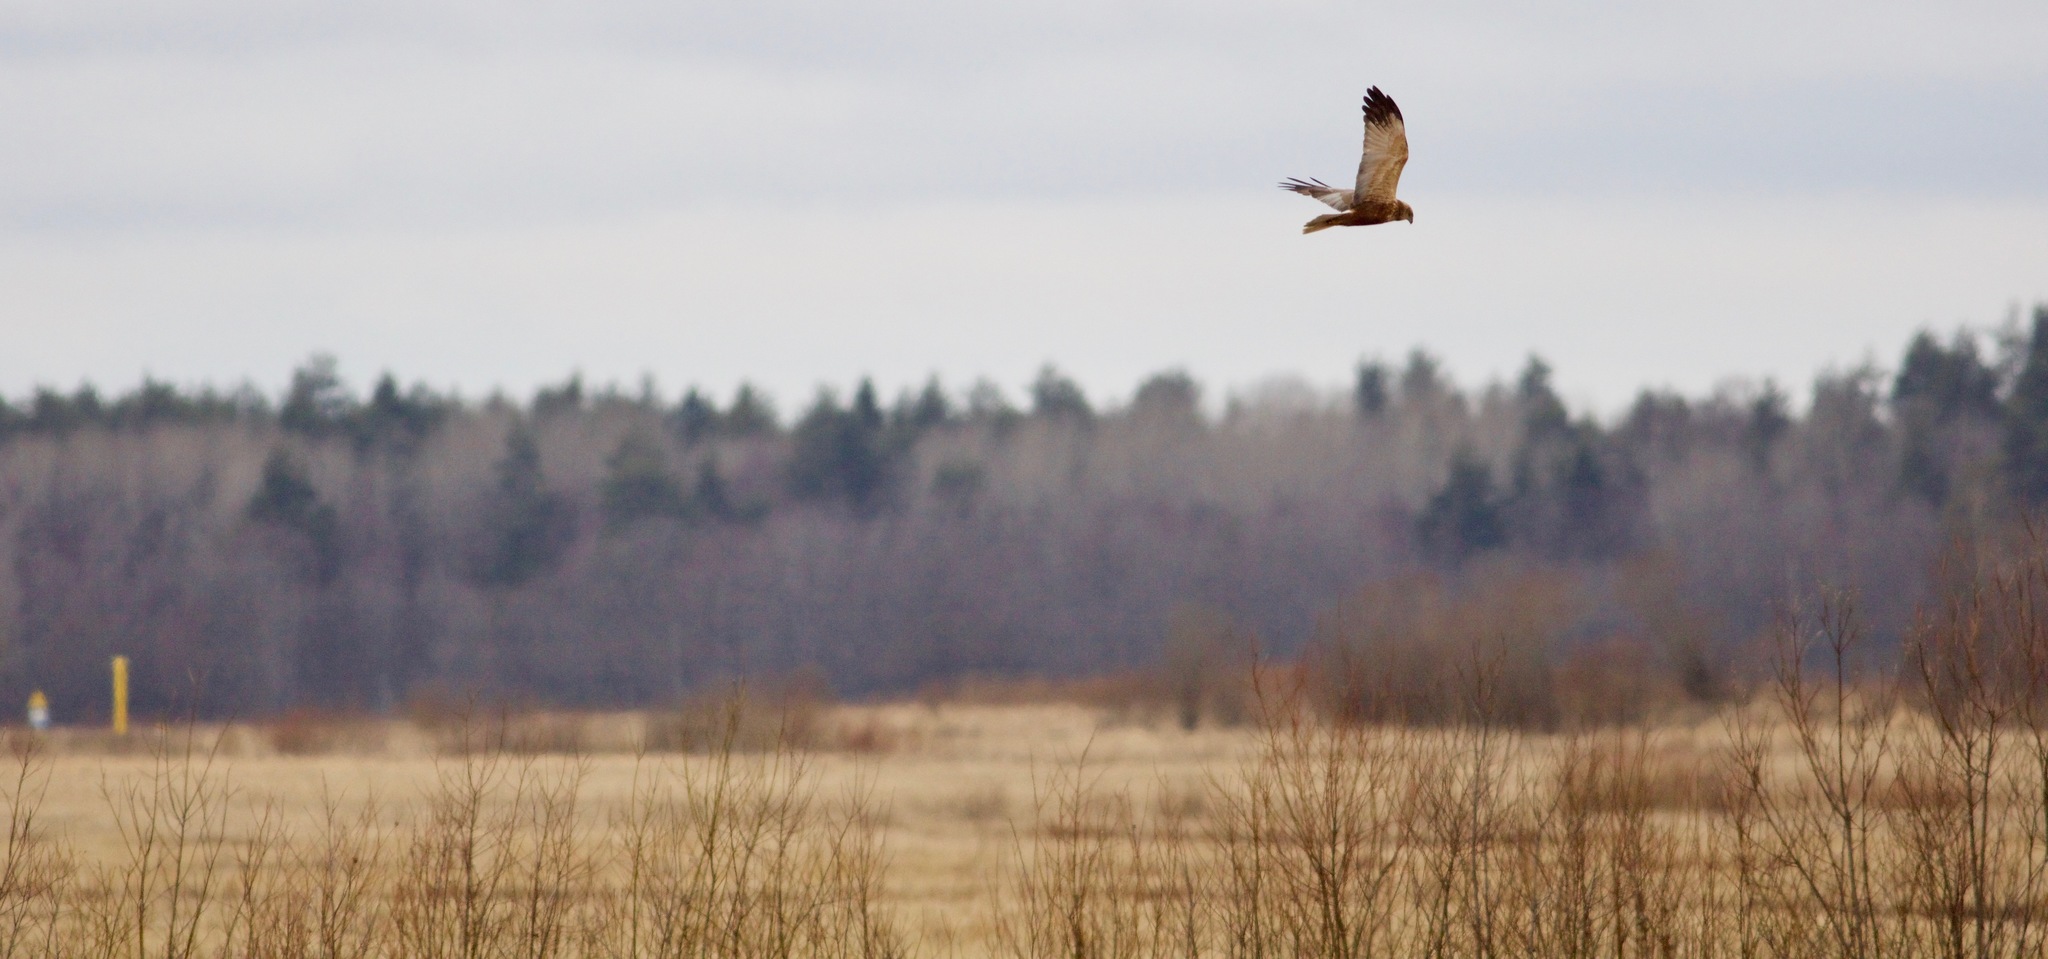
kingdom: Animalia
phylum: Chordata
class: Aves
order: Accipitriformes
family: Accipitridae
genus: Circus
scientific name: Circus aeruginosus
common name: Western marsh harrier
